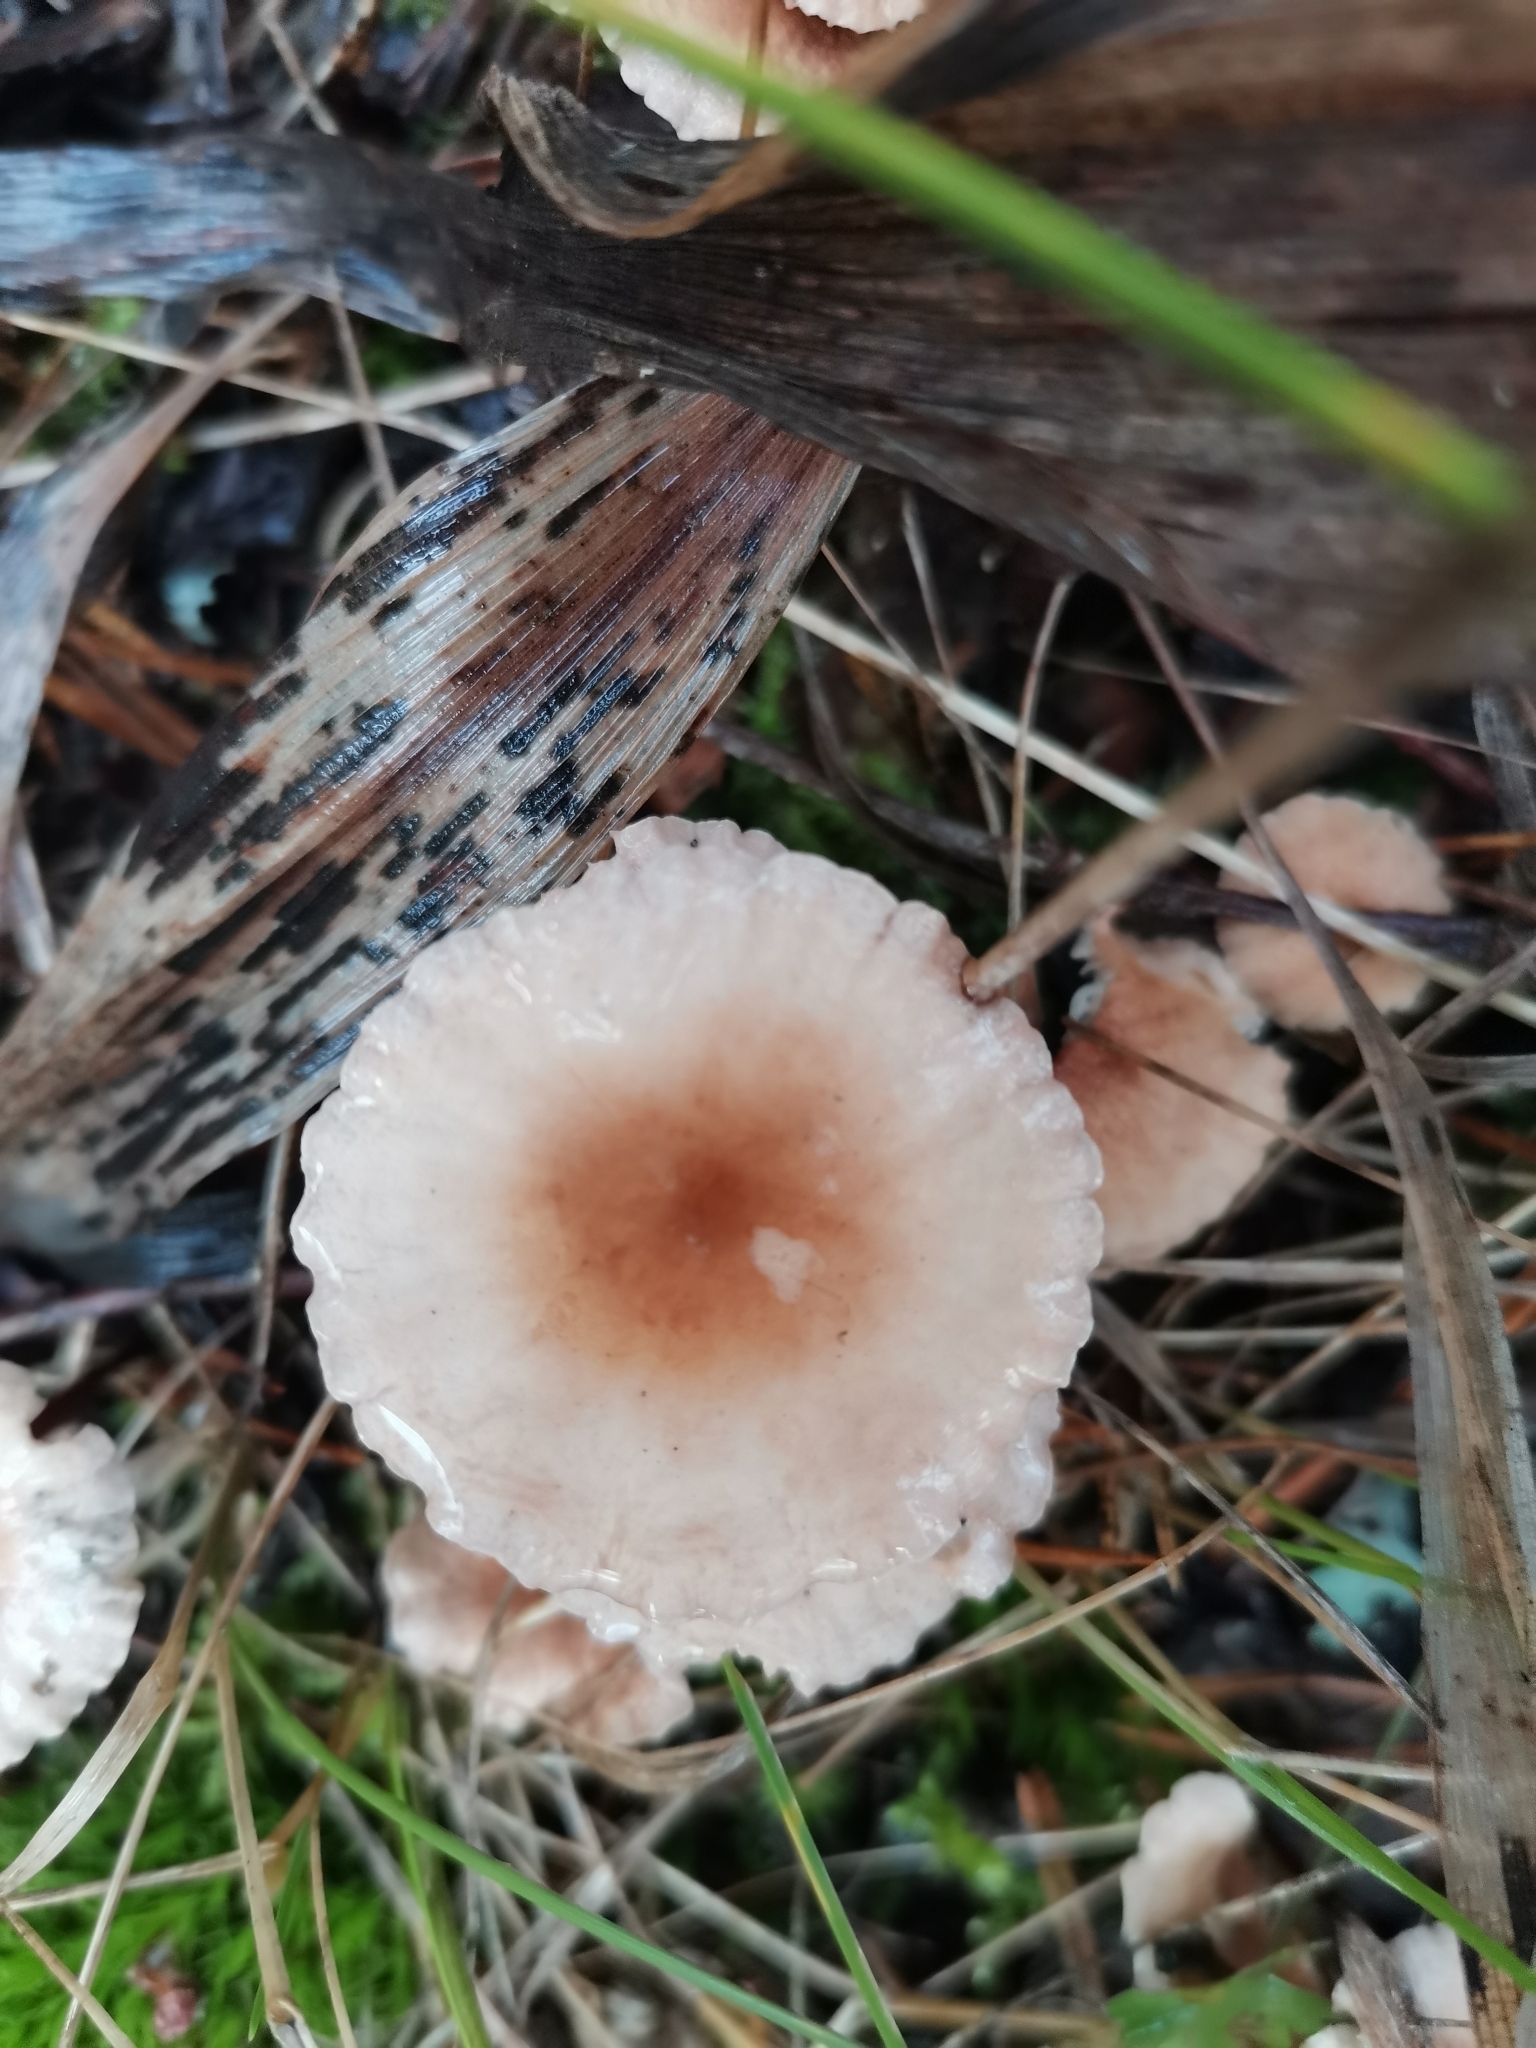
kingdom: Fungi
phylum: Basidiomycota
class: Agaricomycetes
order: Agaricales
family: Omphalotaceae
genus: Mycetinis
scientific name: Mycetinis scorodonius
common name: Vampires bane
